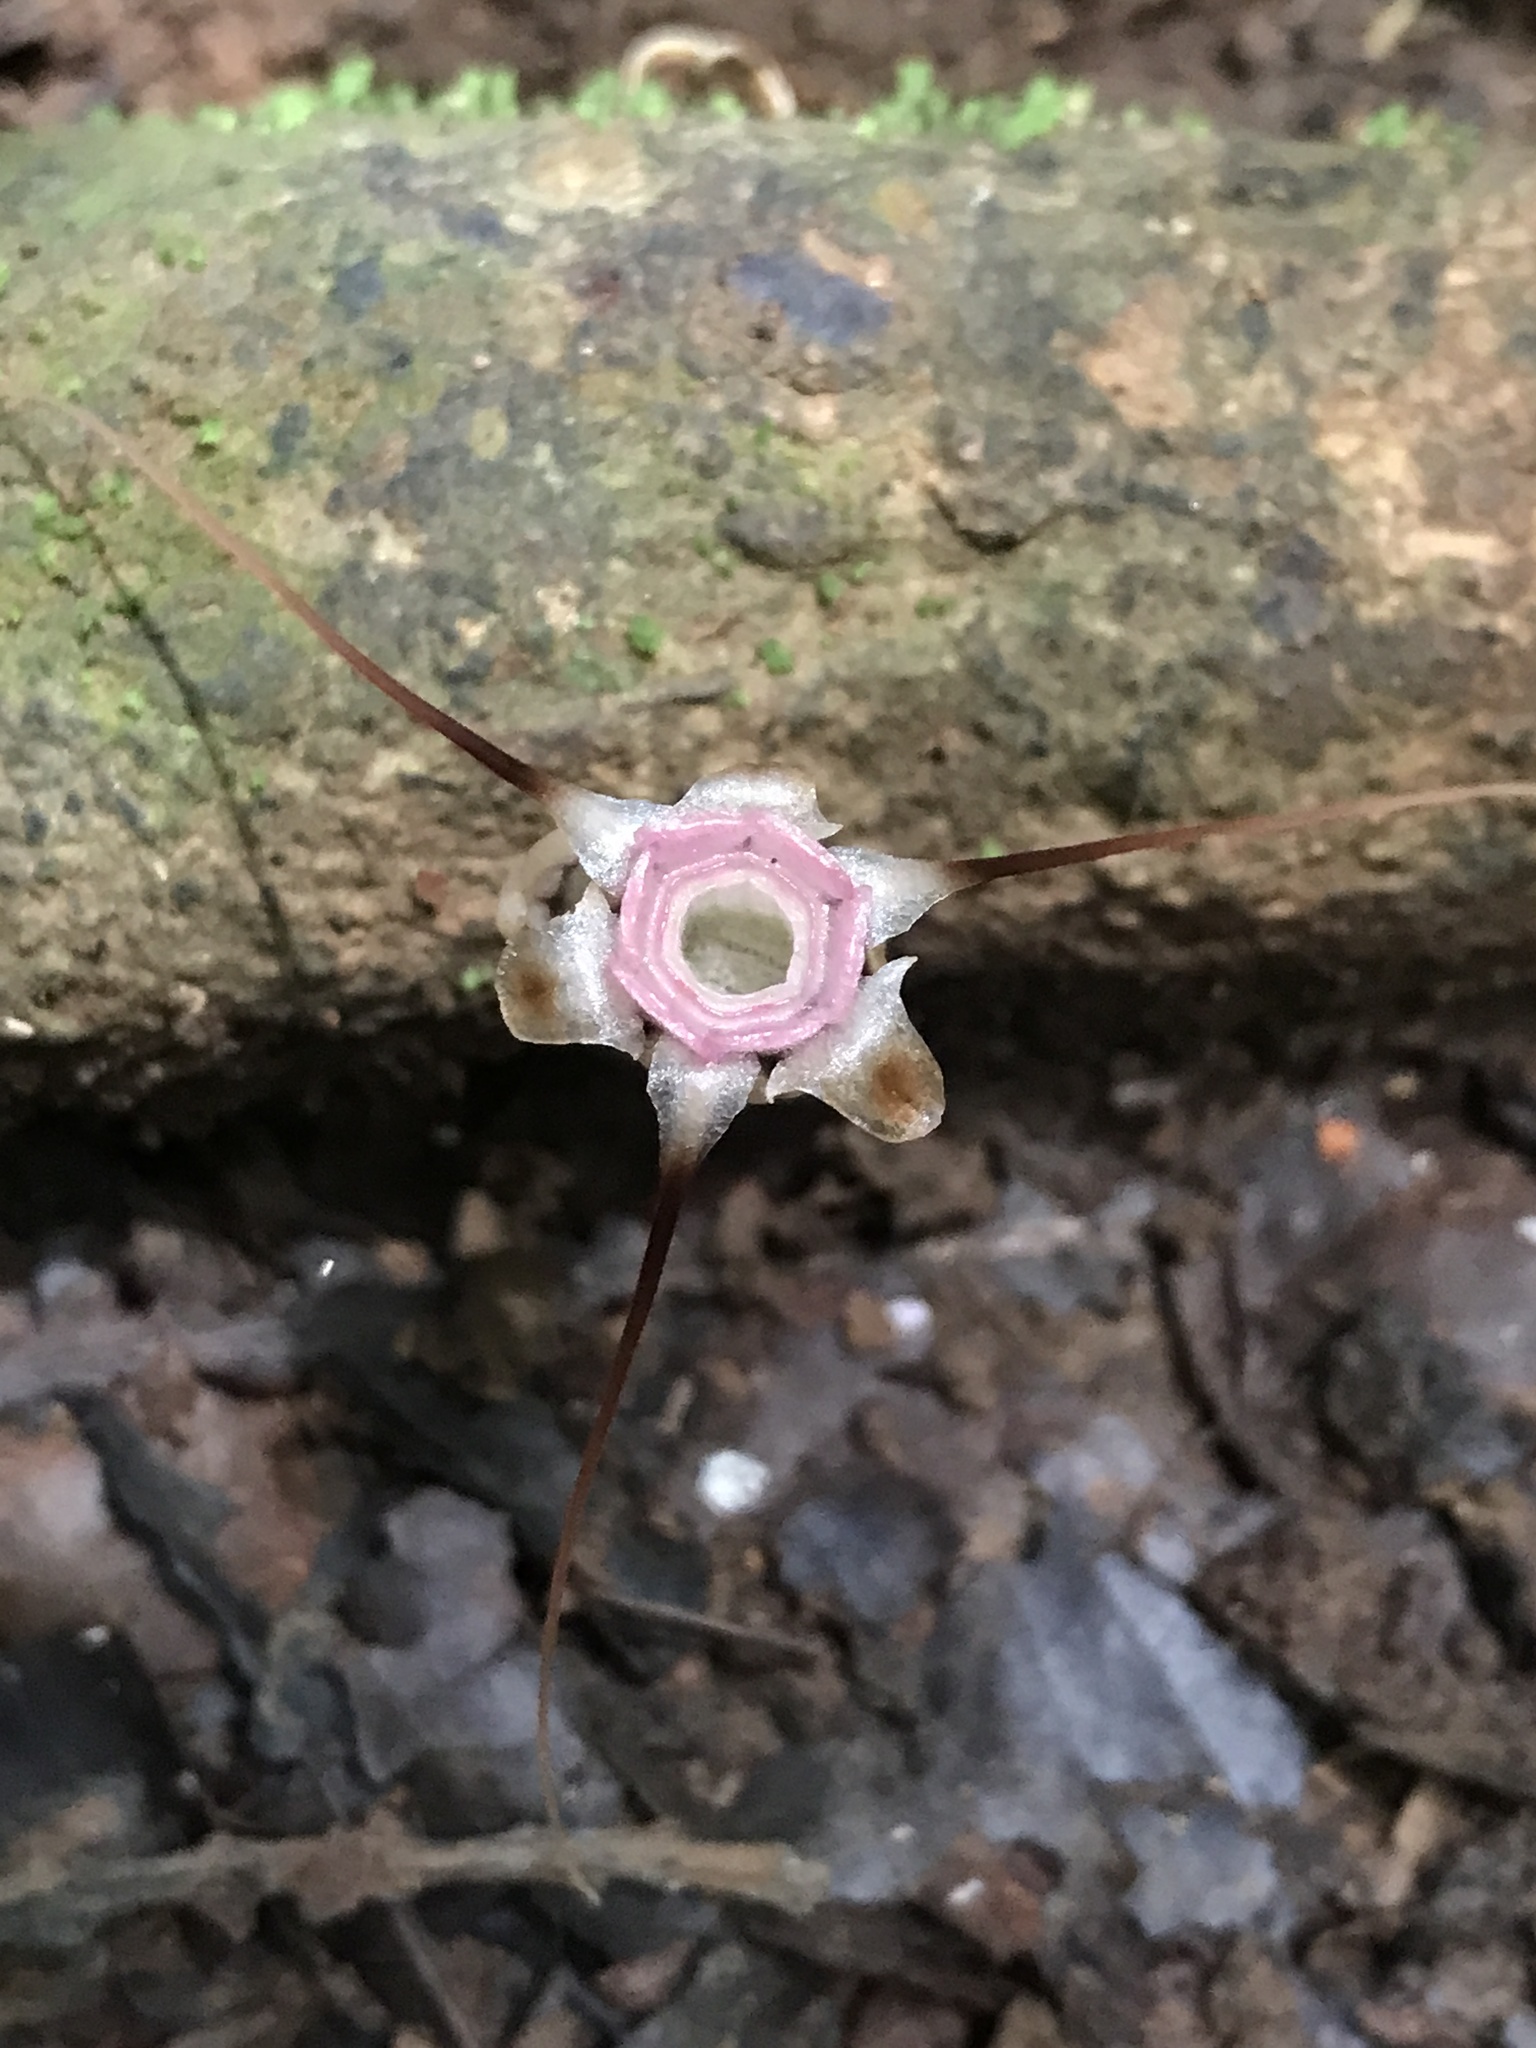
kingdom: Plantae
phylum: Tracheophyta
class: Liliopsida
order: Dioscoreales
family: Burmanniaceae
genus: Thismia
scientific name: Thismia panamensis
